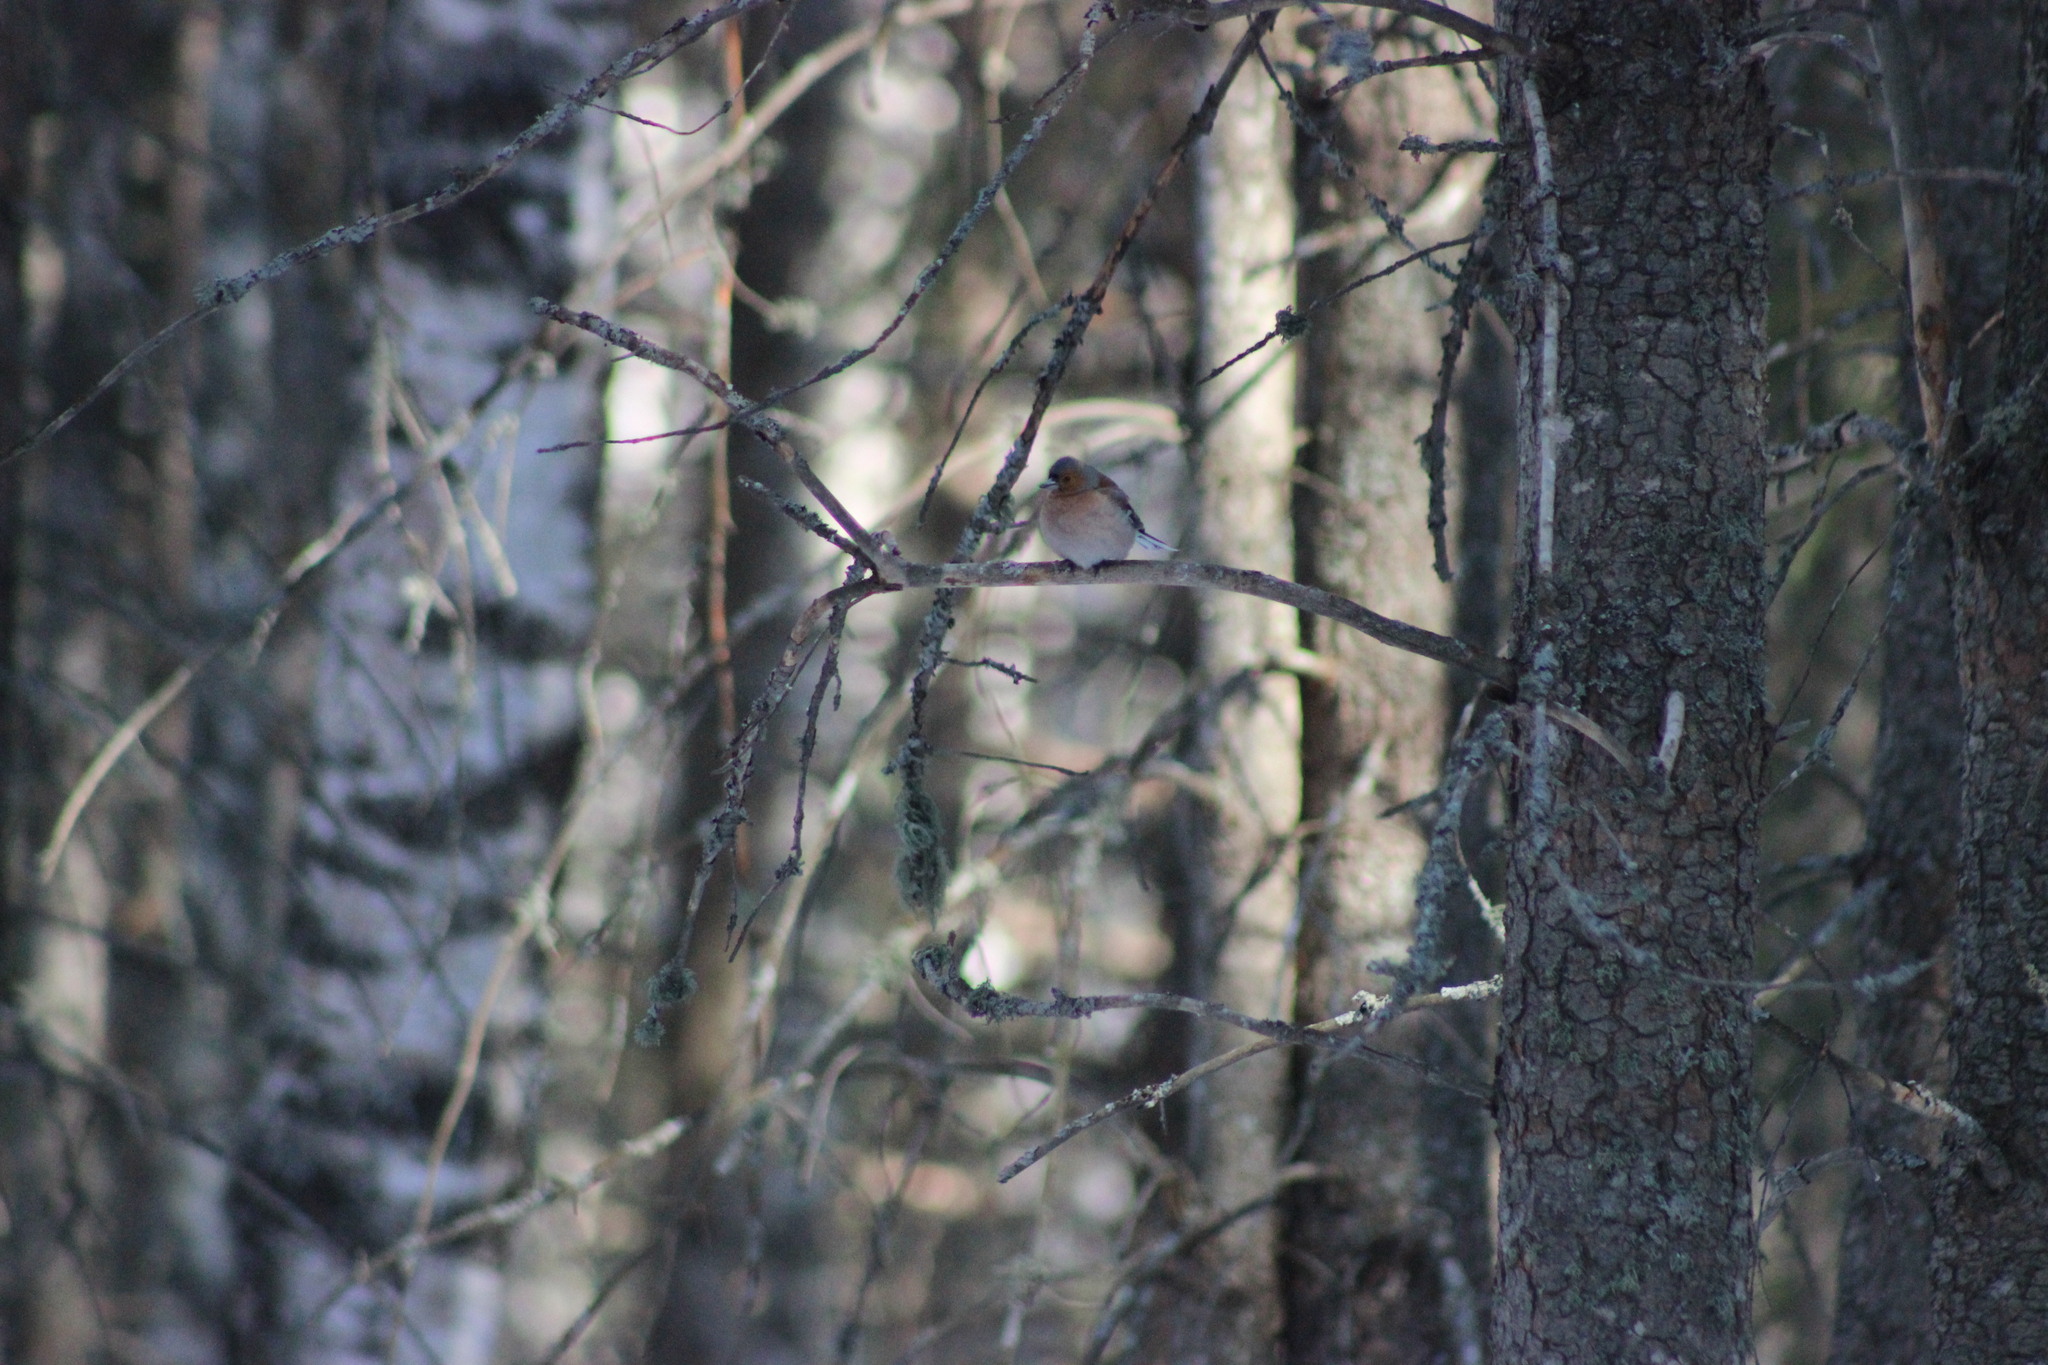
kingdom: Animalia
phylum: Chordata
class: Aves
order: Passeriformes
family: Fringillidae
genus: Fringilla
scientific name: Fringilla coelebs
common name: Common chaffinch
